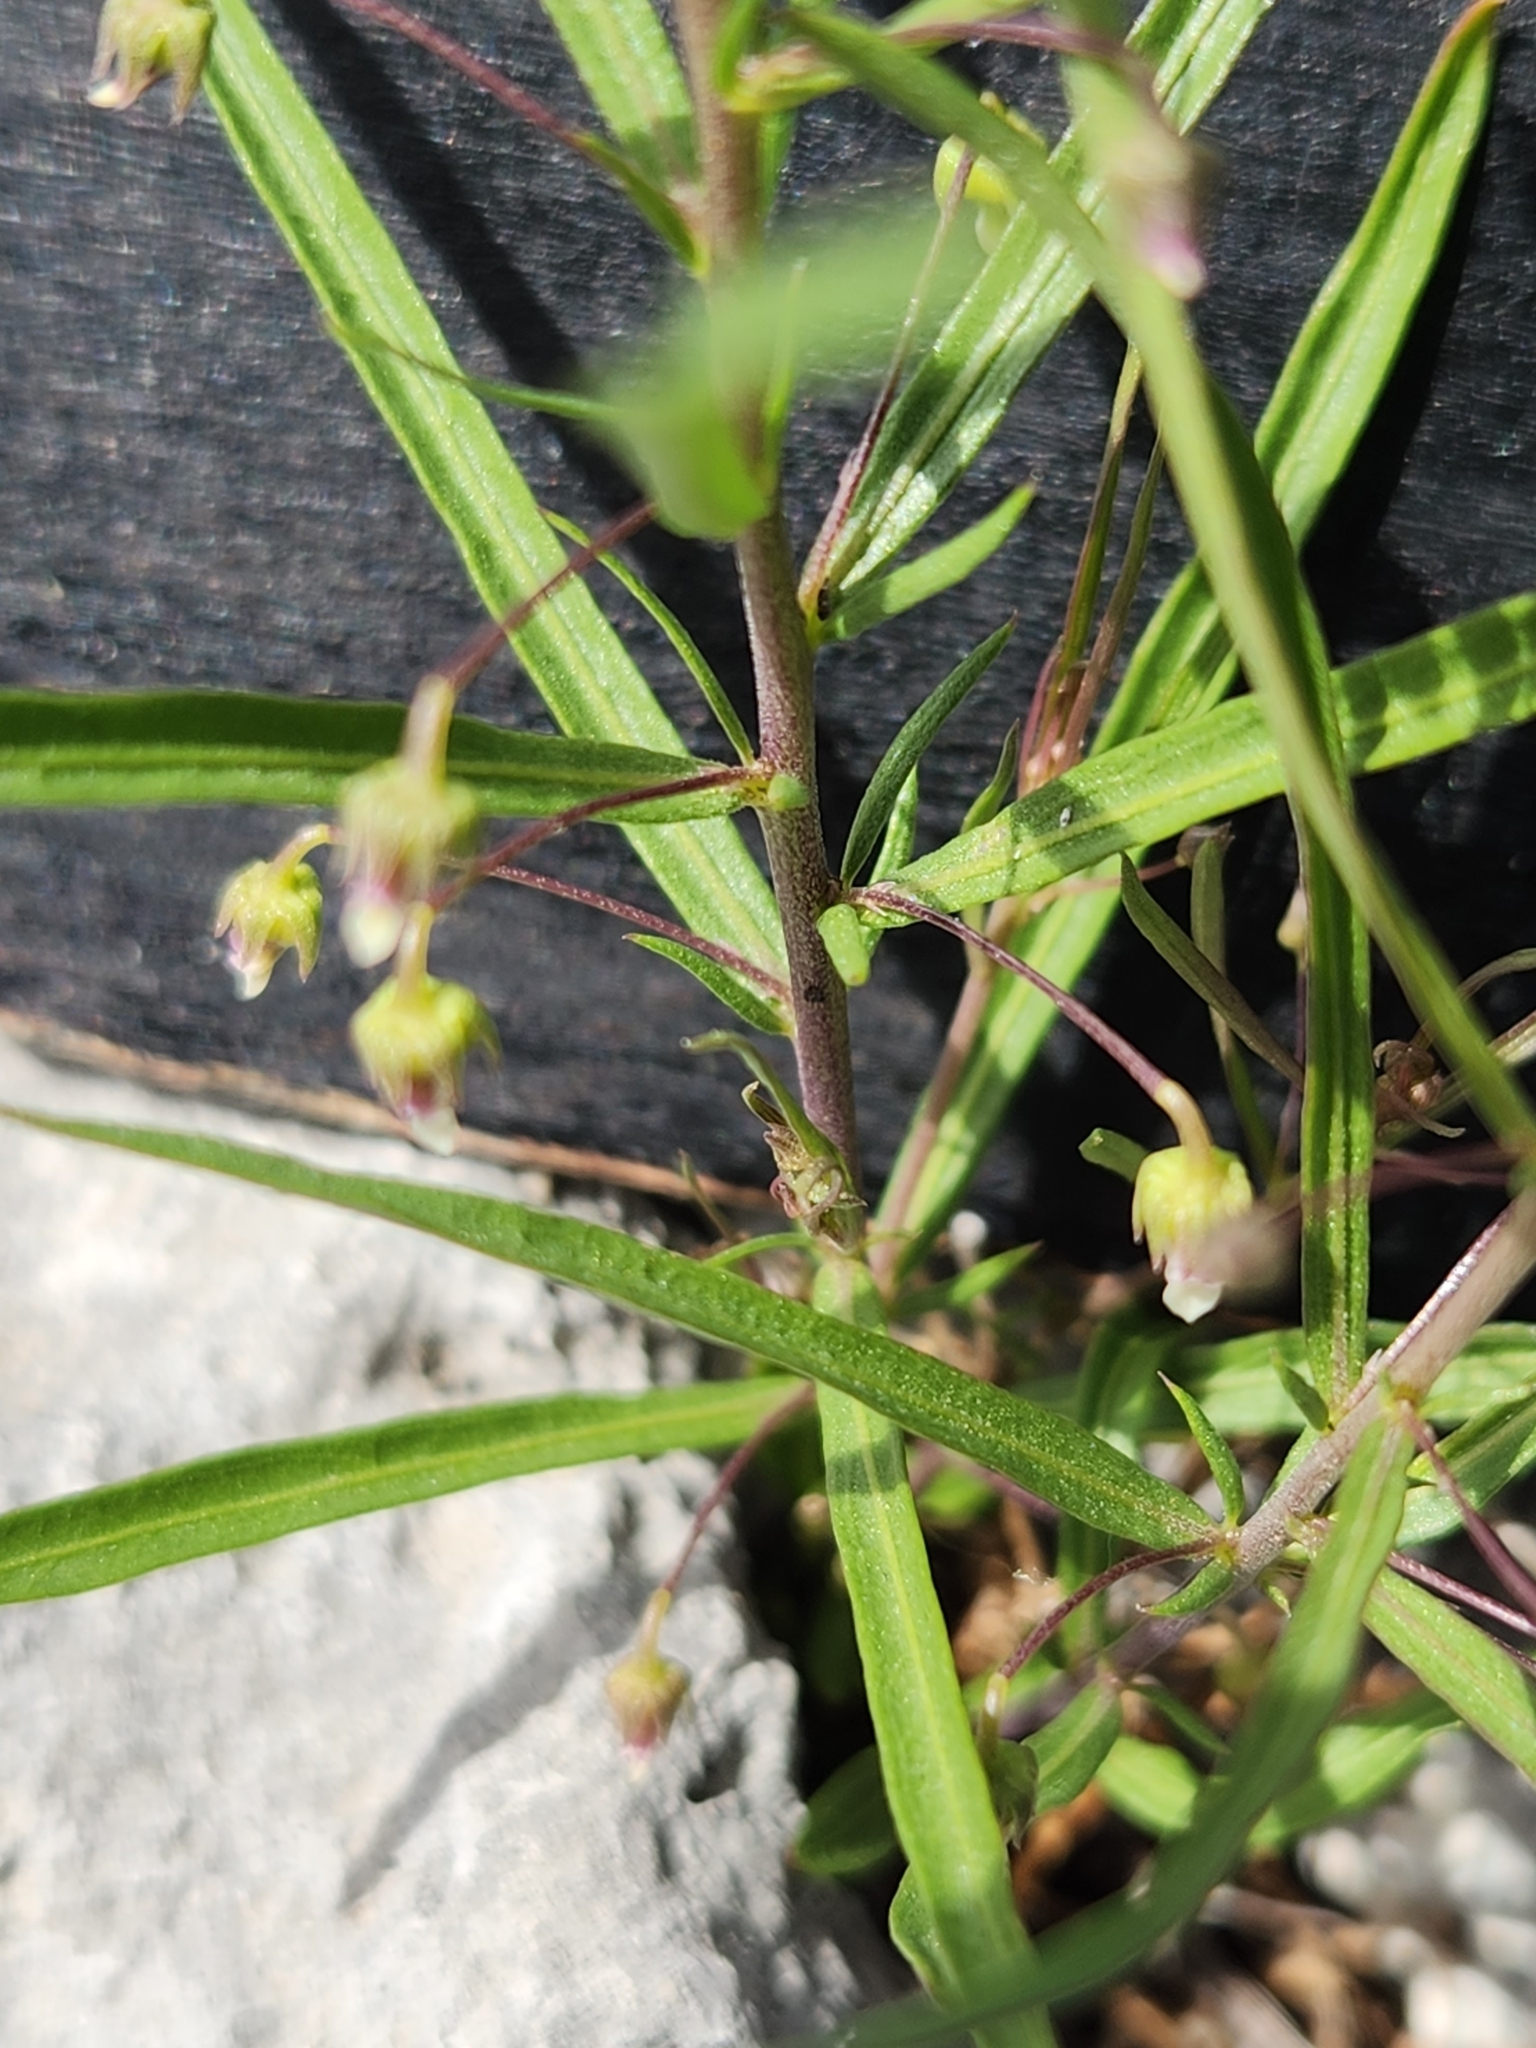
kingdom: Plantae
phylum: Tracheophyta
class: Magnoliopsida
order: Malpighiales
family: Violaceae
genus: Pombalia
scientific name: Pombalia verticillata
